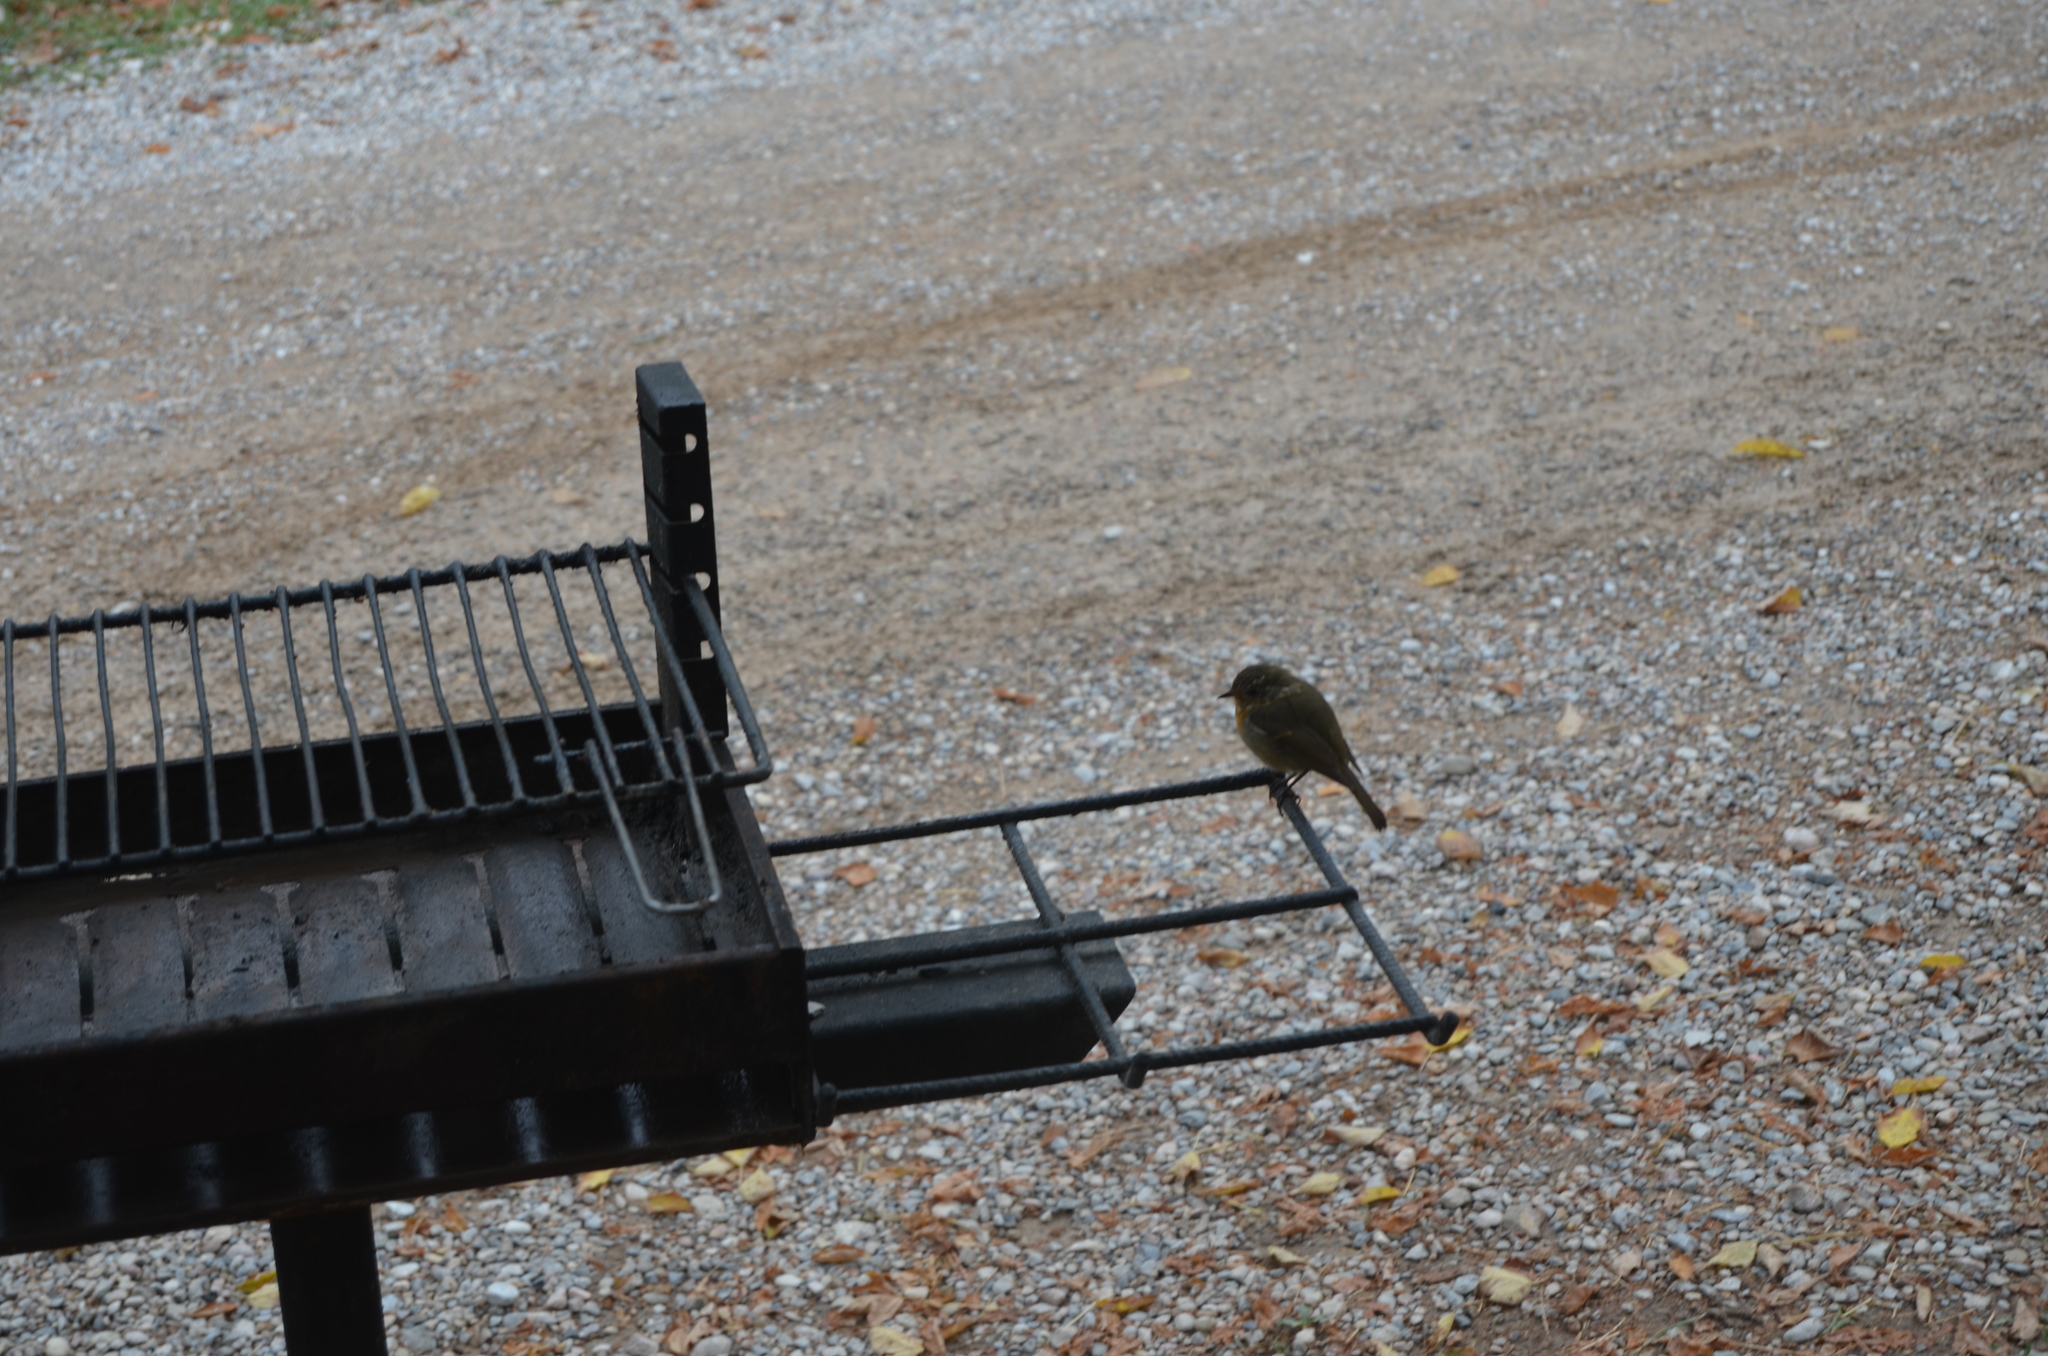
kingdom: Animalia
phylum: Chordata
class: Aves
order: Passeriformes
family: Muscicapidae
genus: Erithacus
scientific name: Erithacus rubecula
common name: European robin
